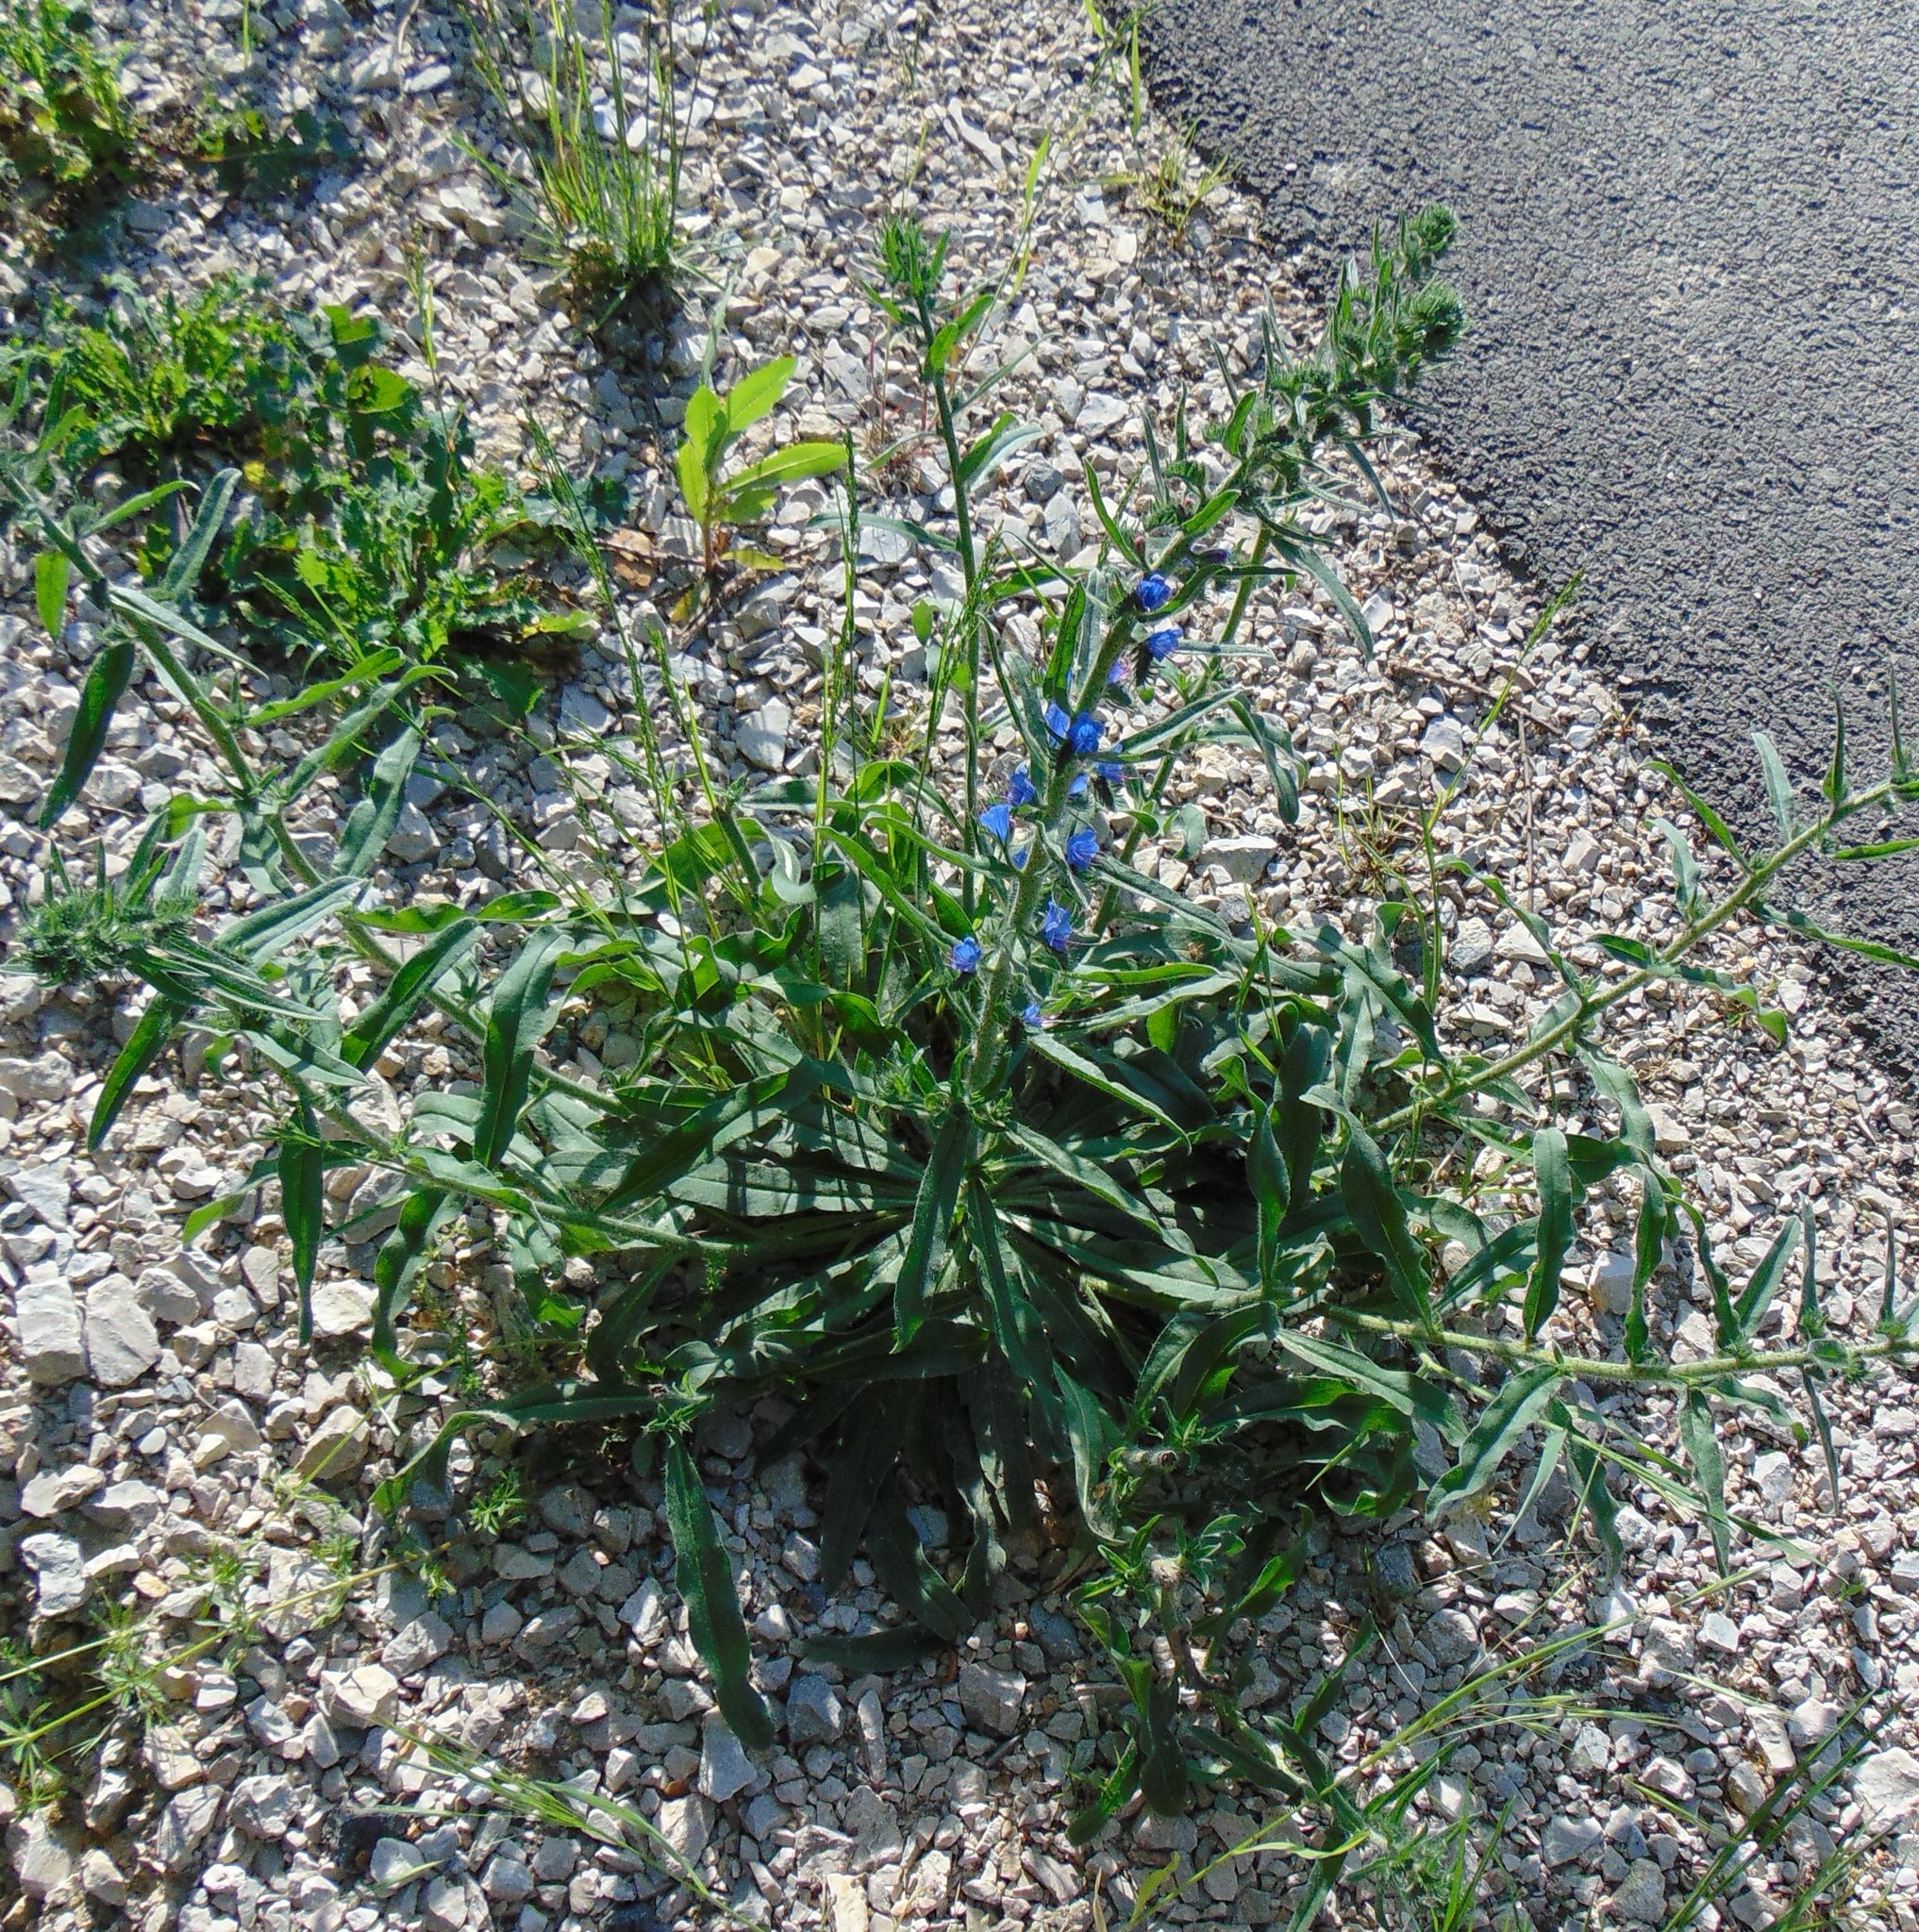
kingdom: Plantae
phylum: Tracheophyta
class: Magnoliopsida
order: Boraginales
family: Boraginaceae
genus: Echium
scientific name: Echium vulgare
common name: Common viper's bugloss
